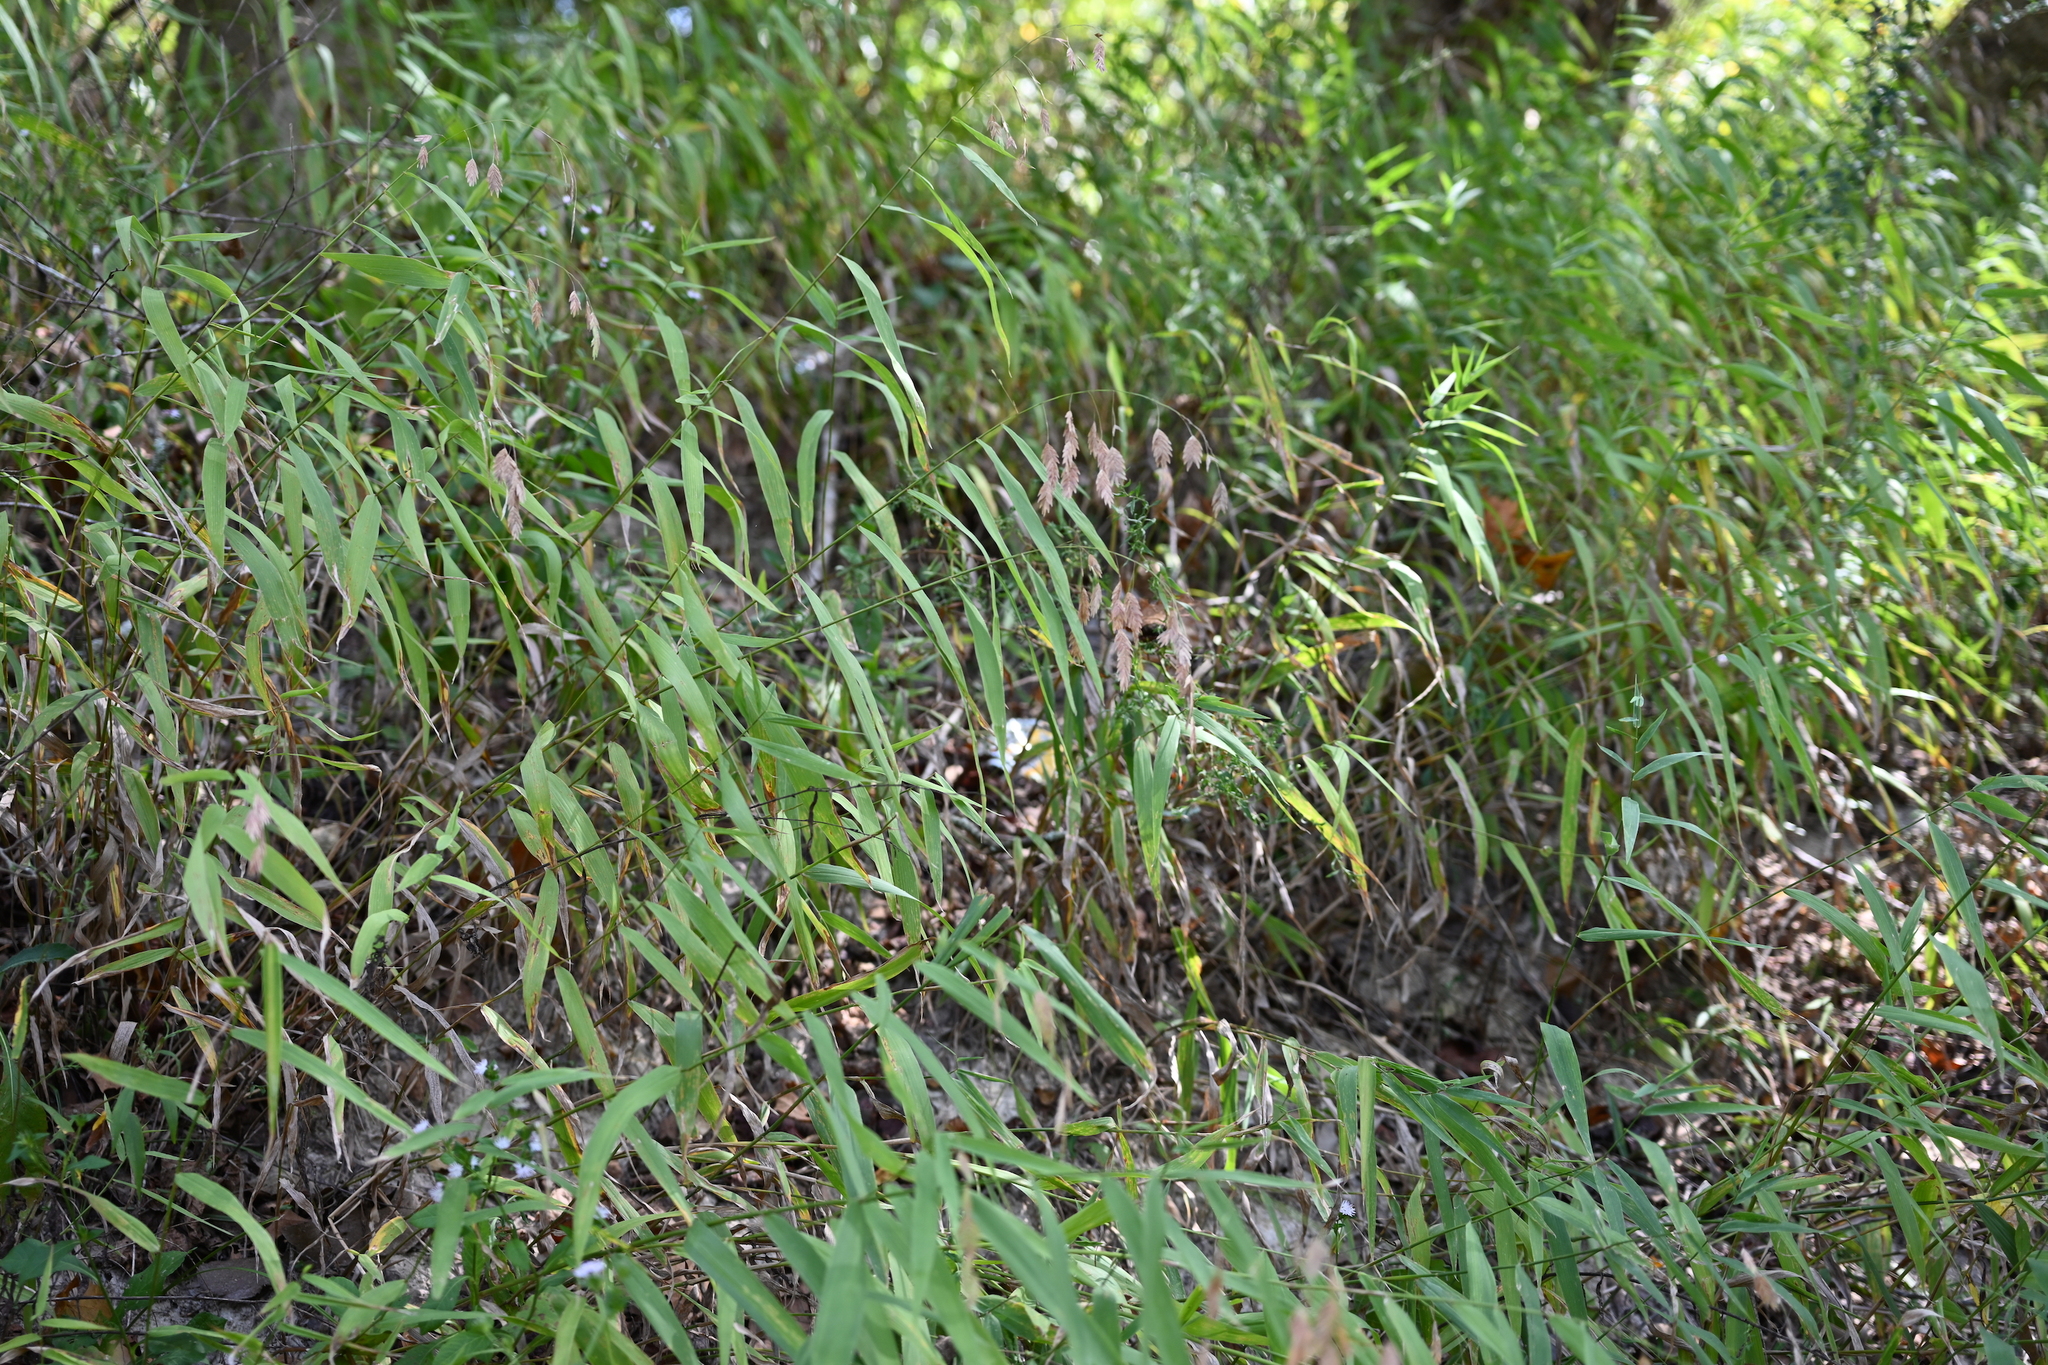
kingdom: Plantae
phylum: Tracheophyta
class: Liliopsida
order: Poales
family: Poaceae
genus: Chasmanthium
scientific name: Chasmanthium latifolium
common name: Broad-leaved chasmanthium
